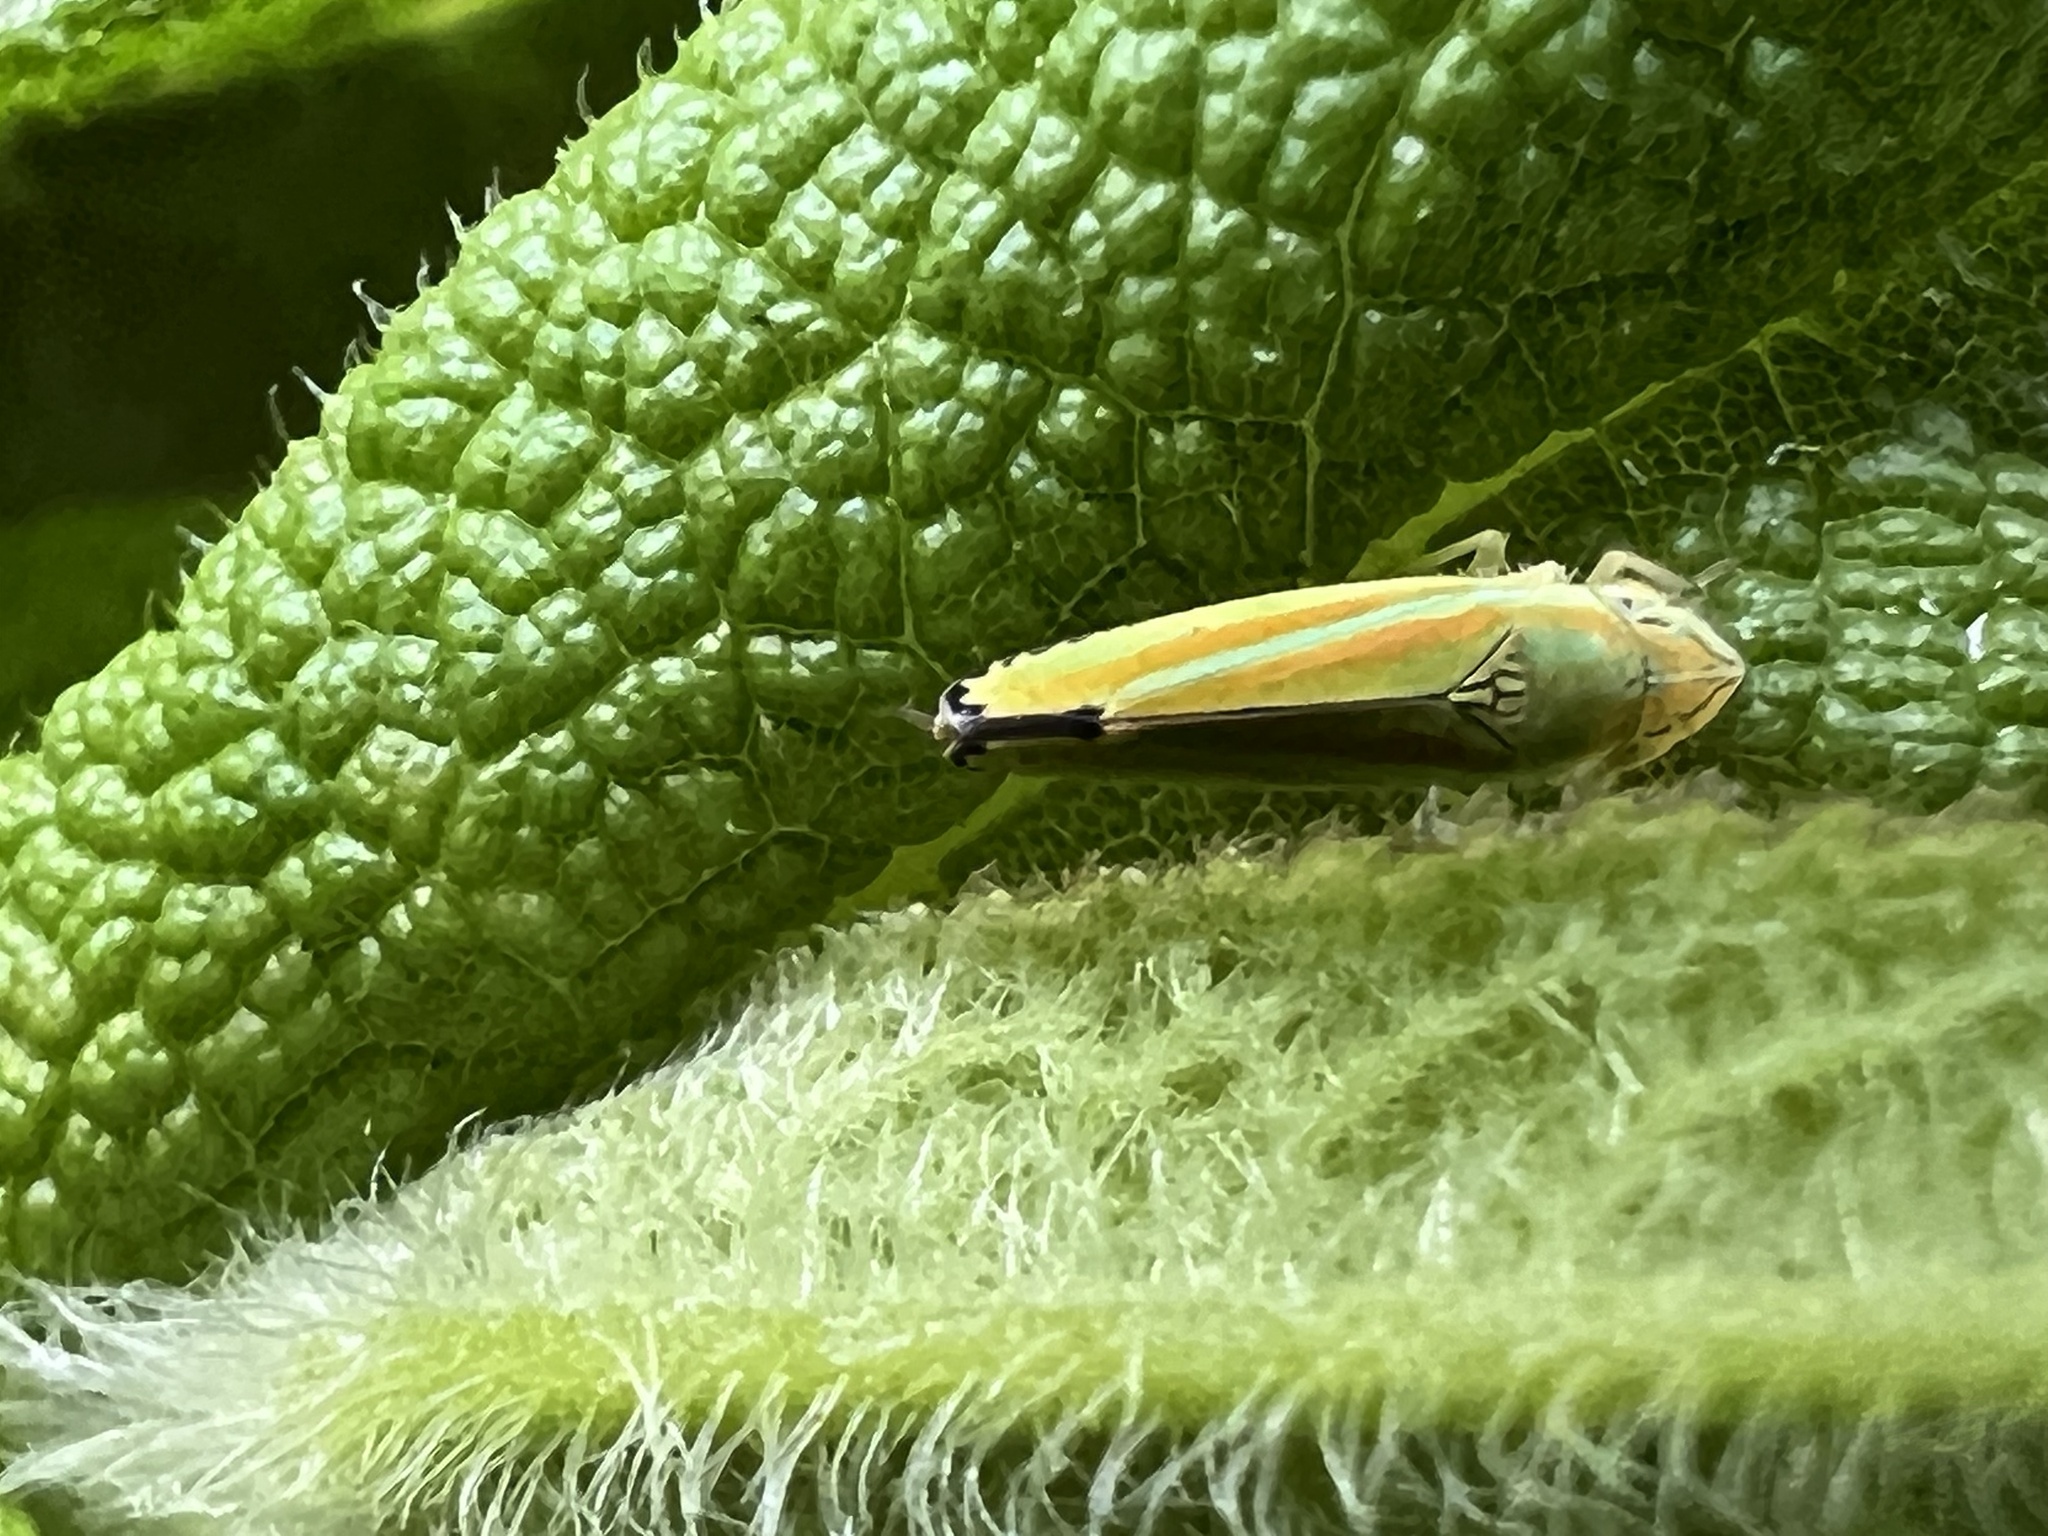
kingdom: Animalia
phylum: Arthropoda
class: Insecta
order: Hemiptera
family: Cicadellidae
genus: Graphocephala
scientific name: Graphocephala versuta
